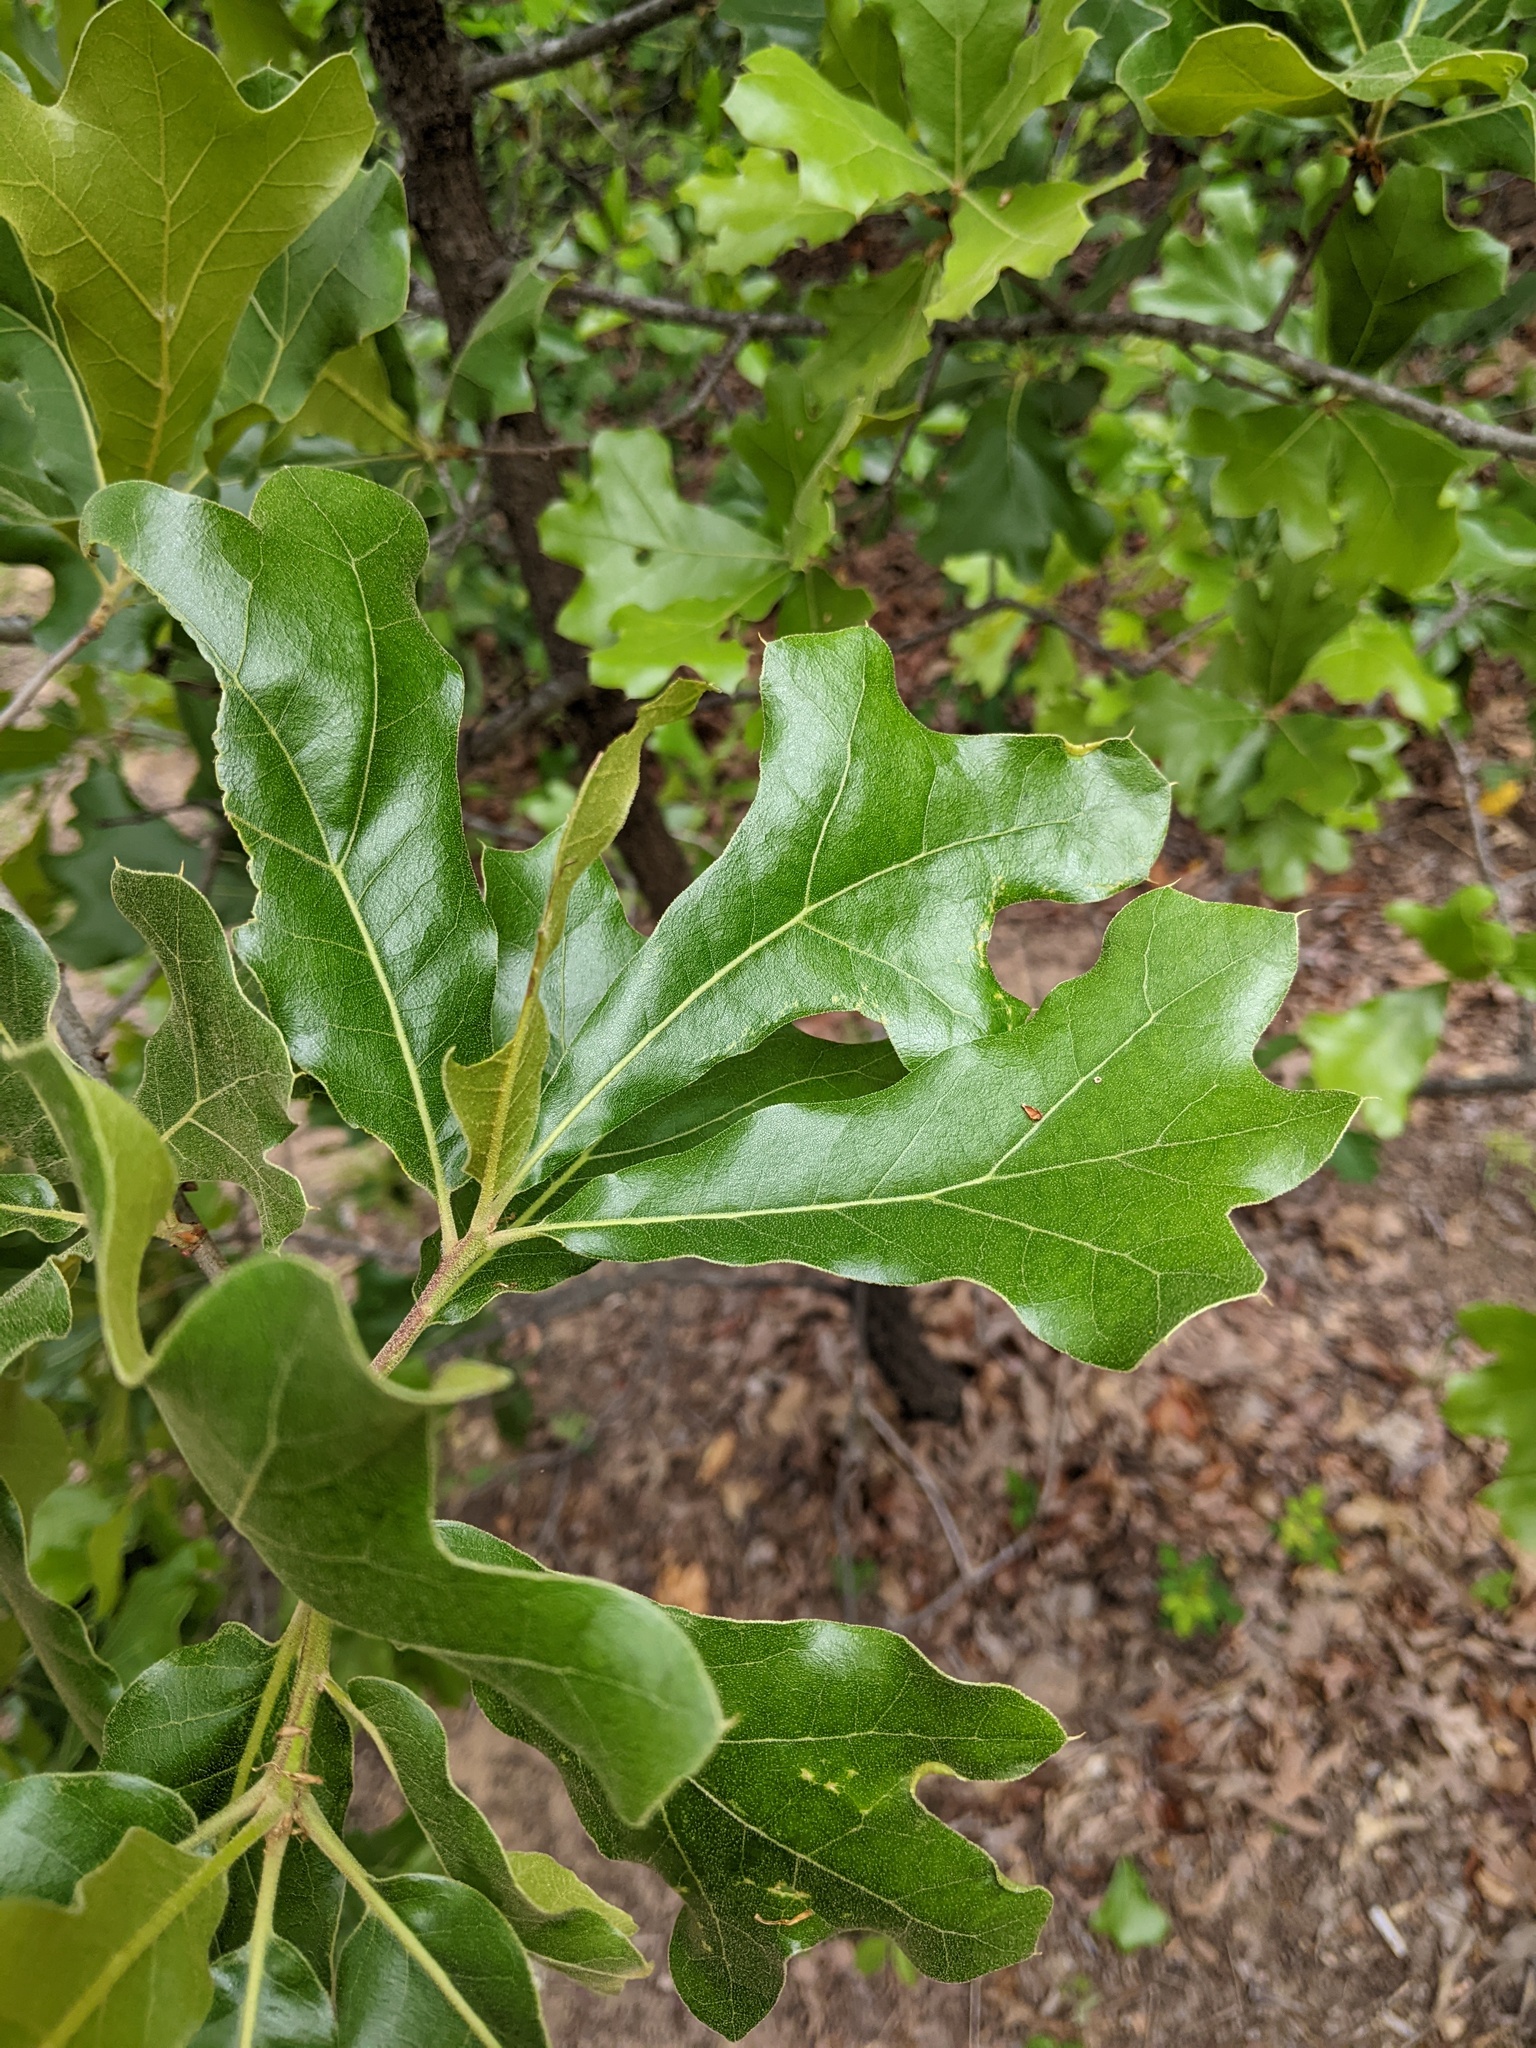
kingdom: Plantae
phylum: Tracheophyta
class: Magnoliopsida
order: Fagales
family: Fagaceae
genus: Quercus
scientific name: Quercus marilandica
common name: Blackjack oak
